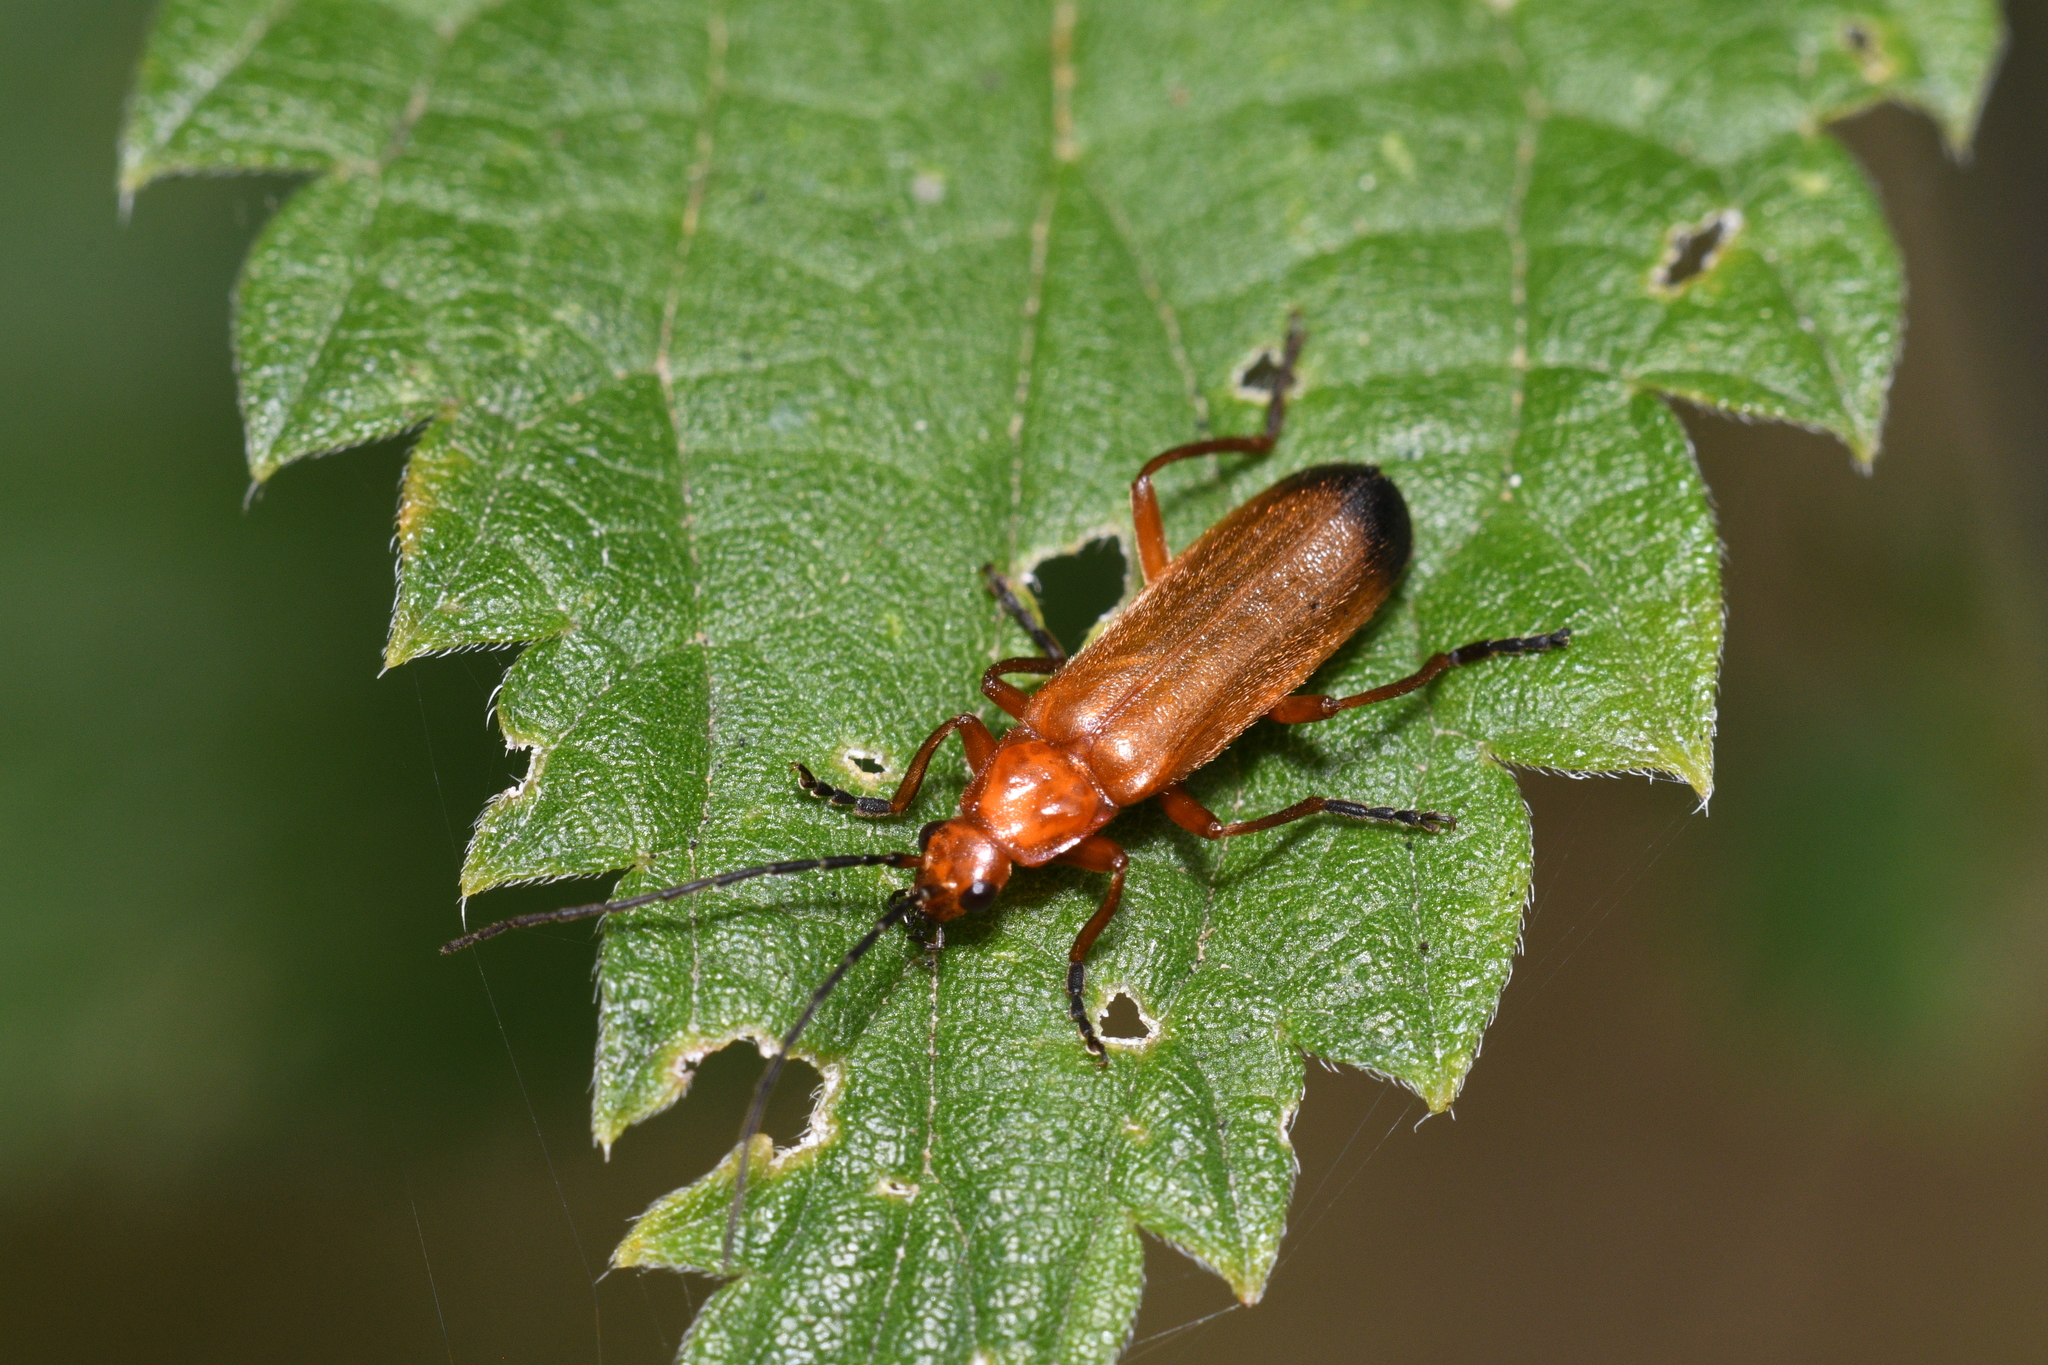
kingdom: Animalia
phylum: Arthropoda
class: Insecta
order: Coleoptera
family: Cantharidae
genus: Rhagonycha
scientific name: Rhagonycha fulva
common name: Common red soldier beetle
